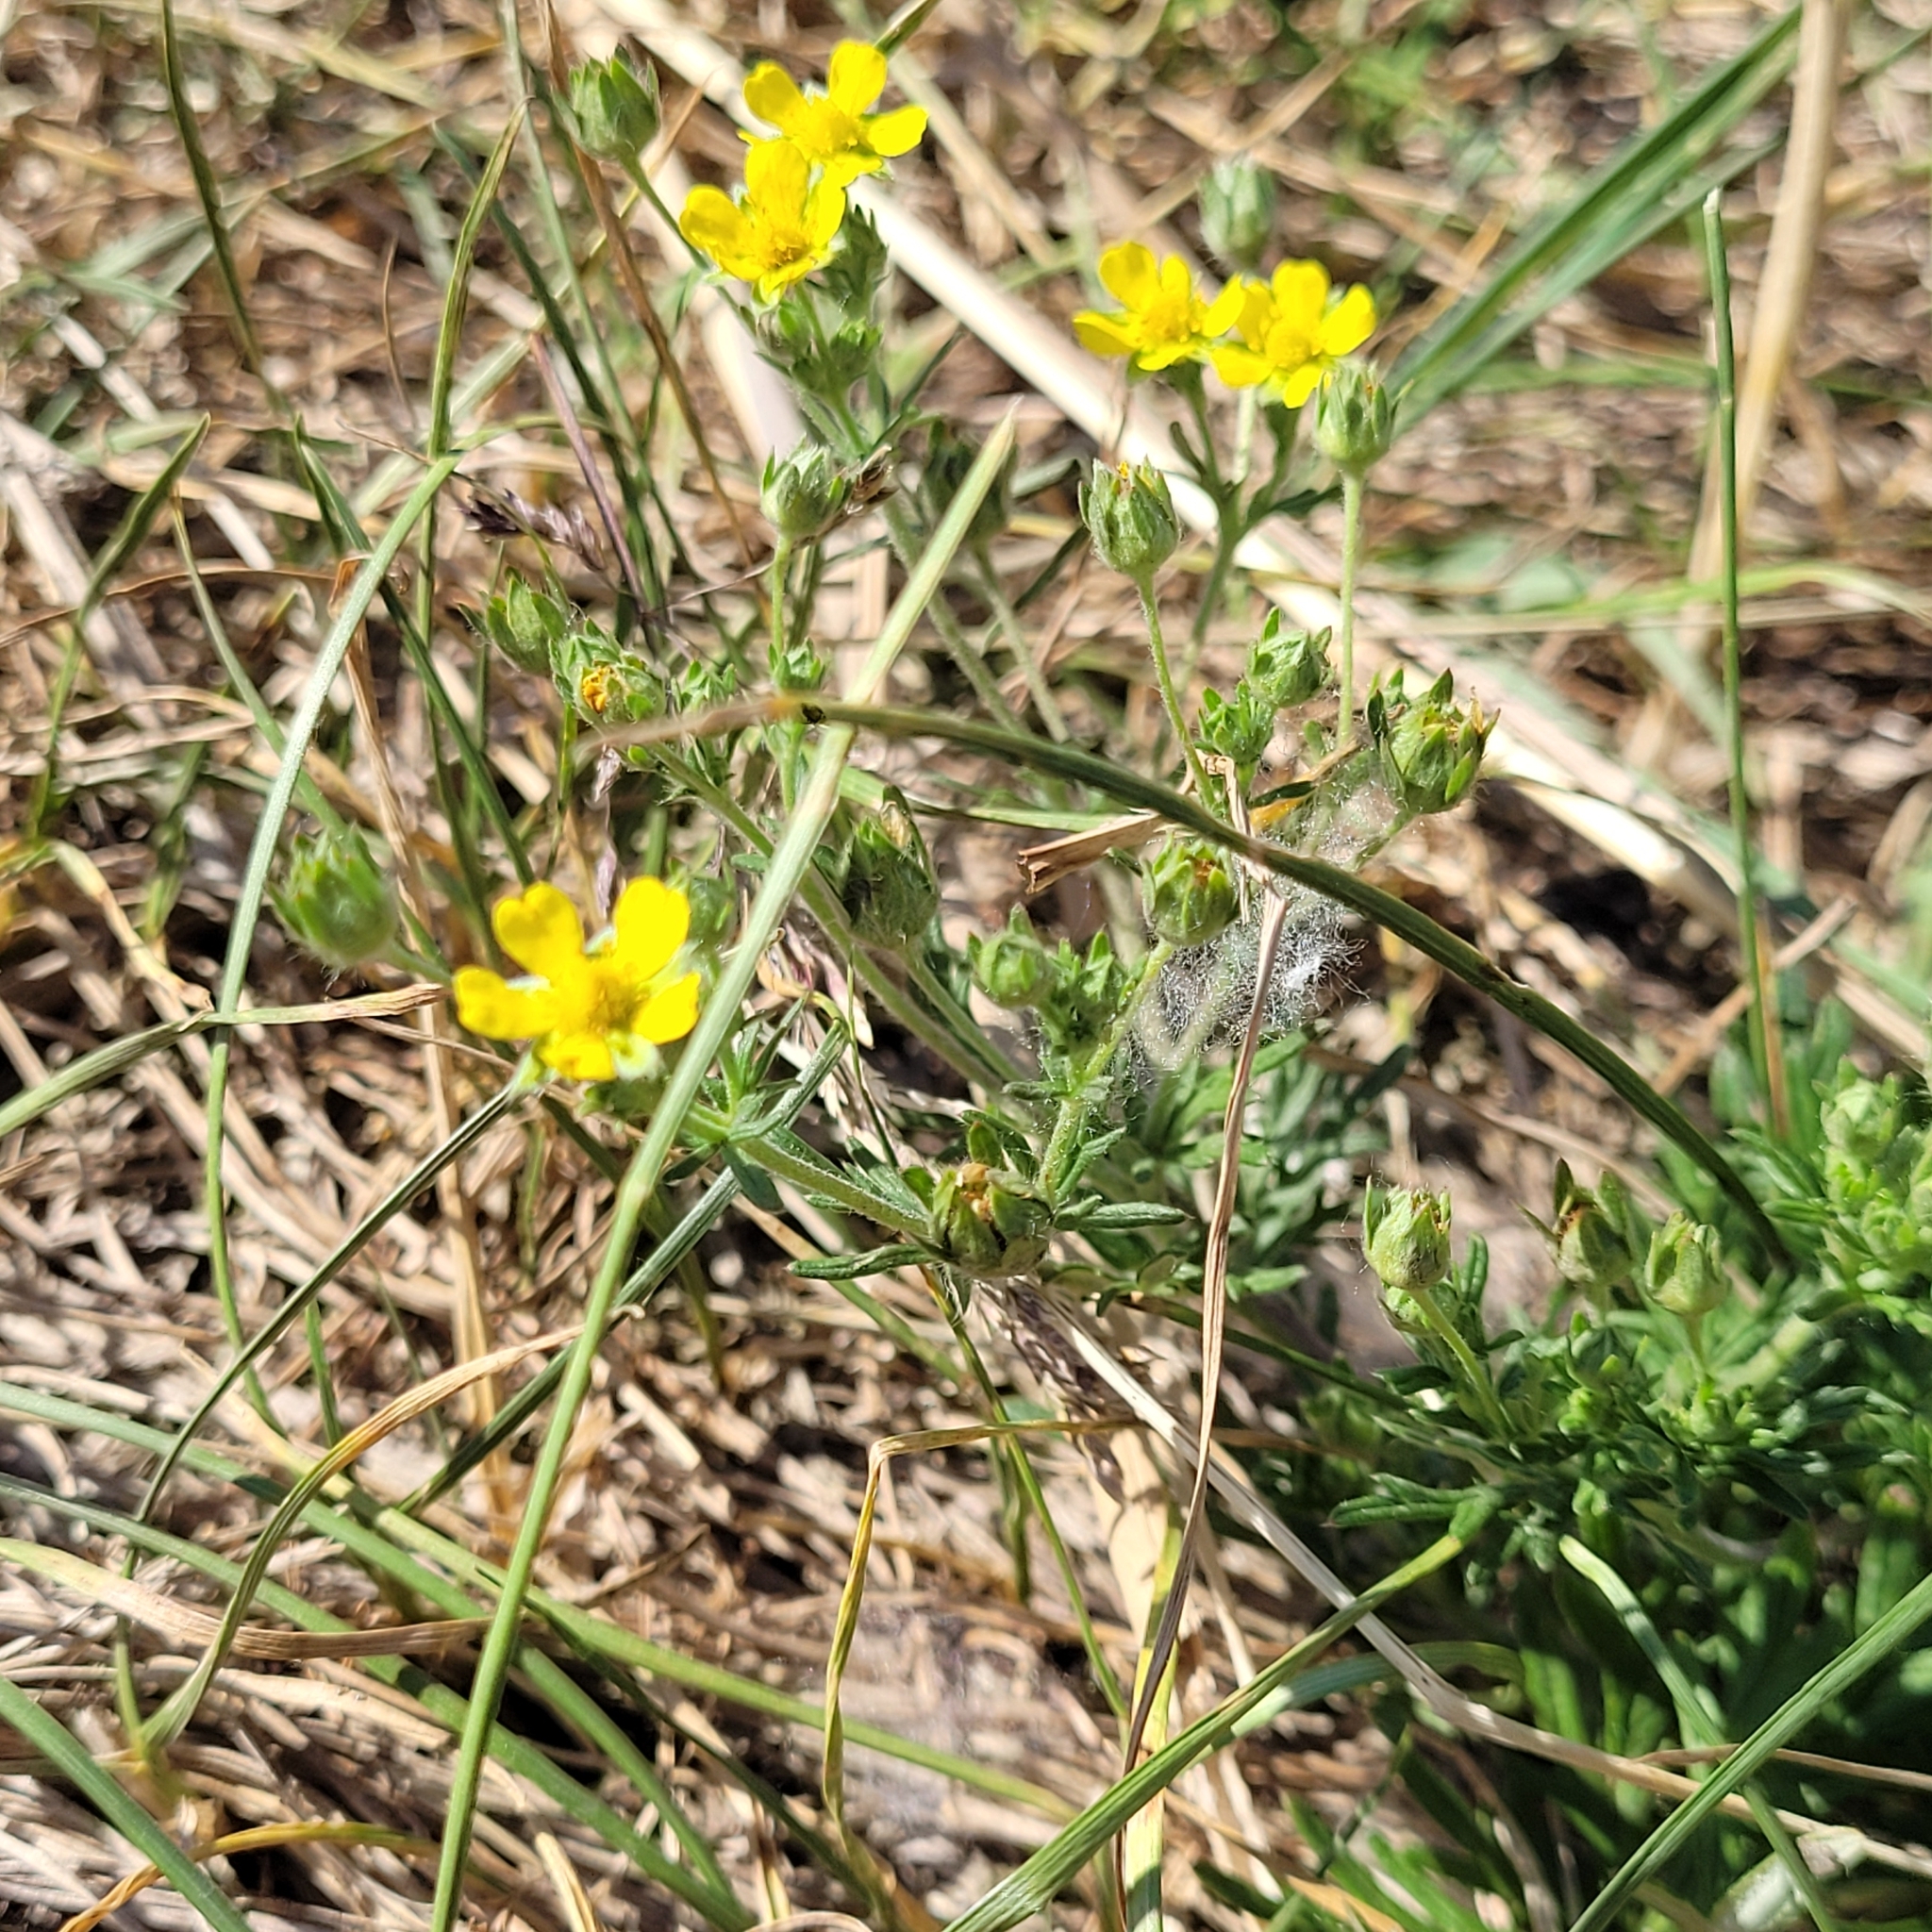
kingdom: Plantae
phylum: Tracheophyta
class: Magnoliopsida
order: Rosales
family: Rosaceae
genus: Potentilla
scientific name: Potentilla argentea
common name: Hoary cinquefoil
